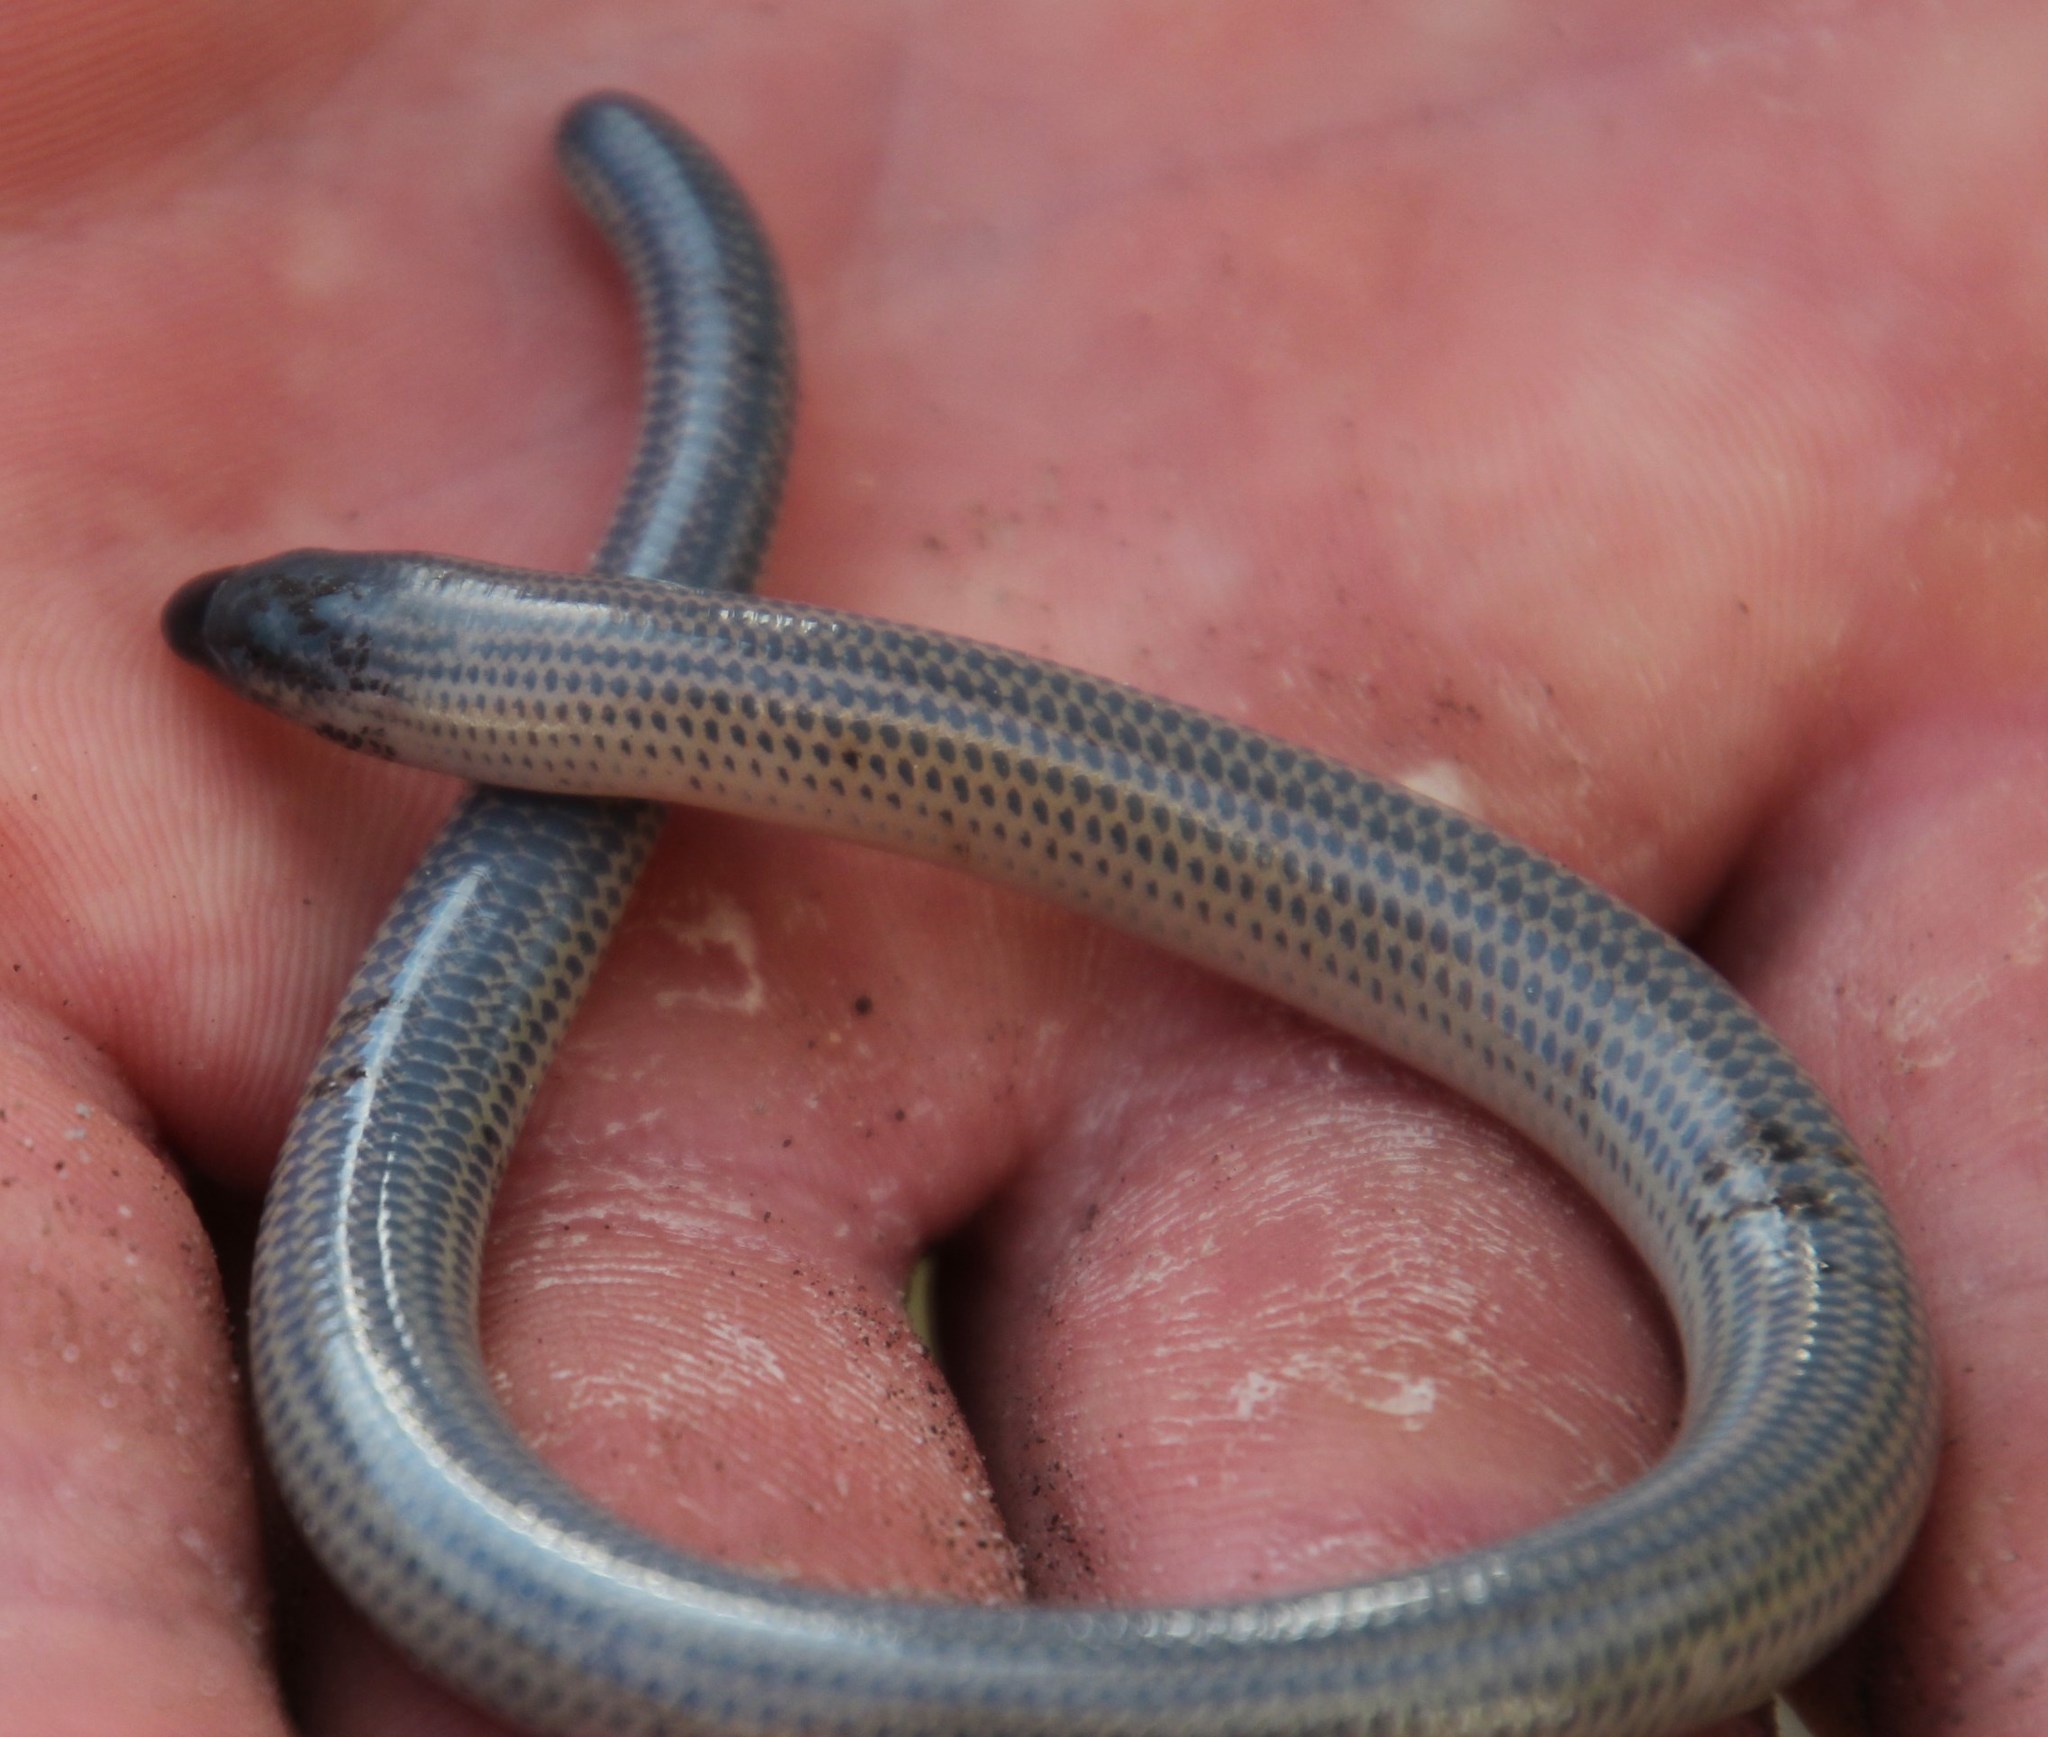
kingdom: Animalia
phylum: Chordata
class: Squamata
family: Scincidae
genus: Acontias
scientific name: Acontias meleagris
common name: Cape legless skink
